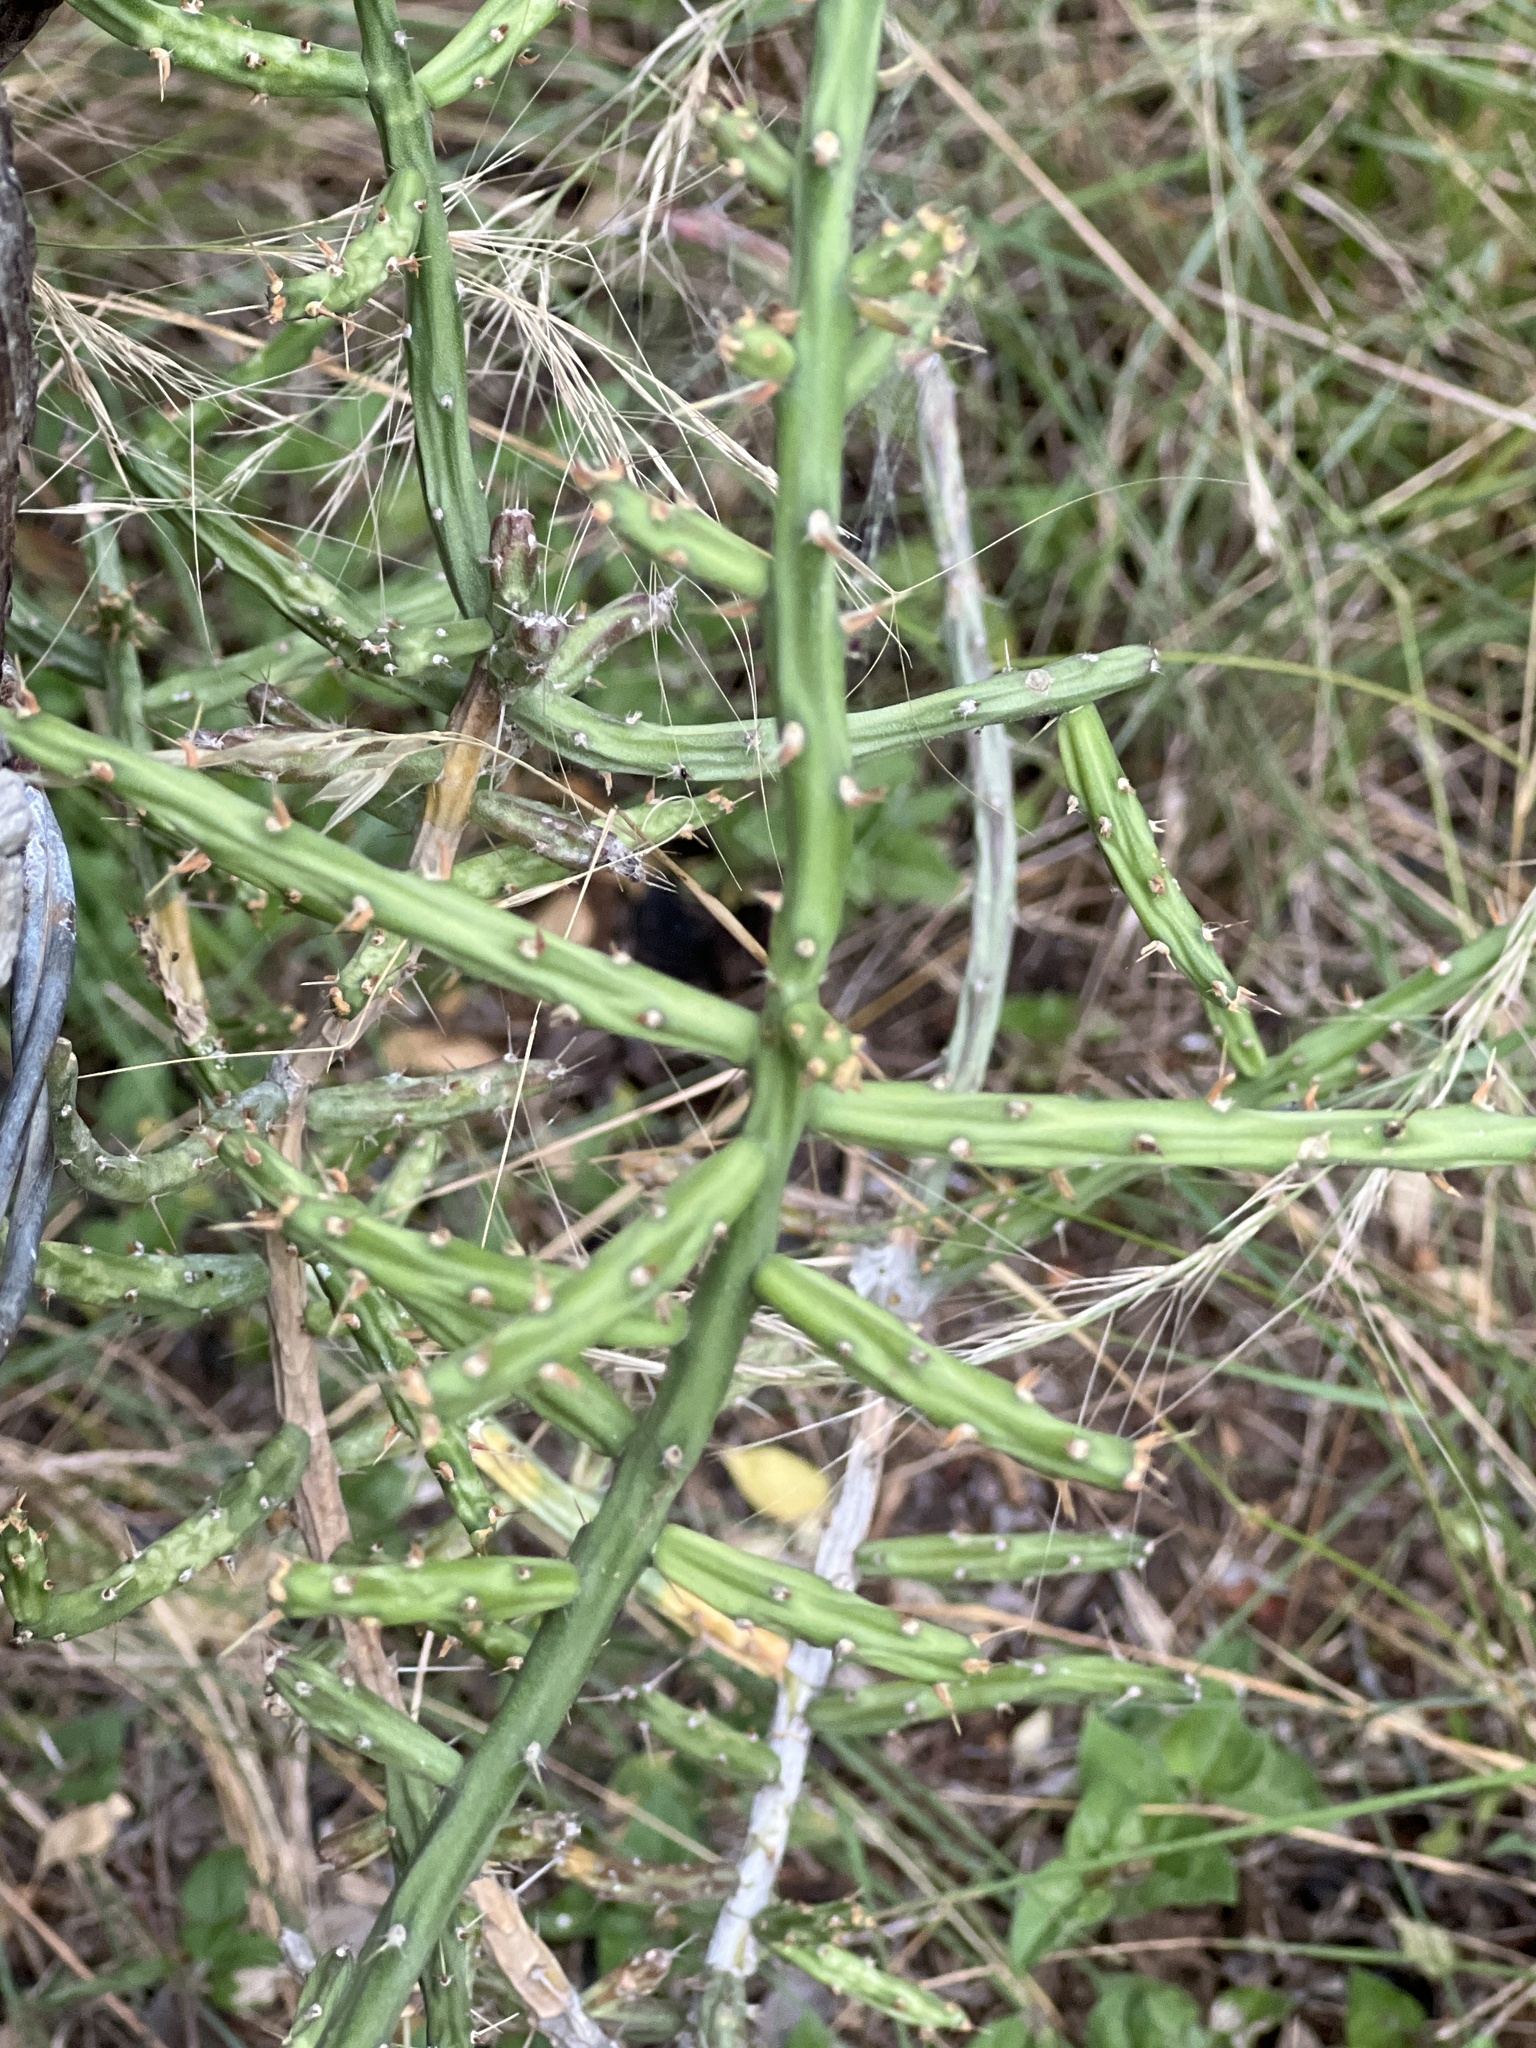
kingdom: Plantae
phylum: Tracheophyta
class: Magnoliopsida
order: Caryophyllales
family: Cactaceae
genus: Cylindropuntia
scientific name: Cylindropuntia leptocaulis
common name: Christmas cactus
